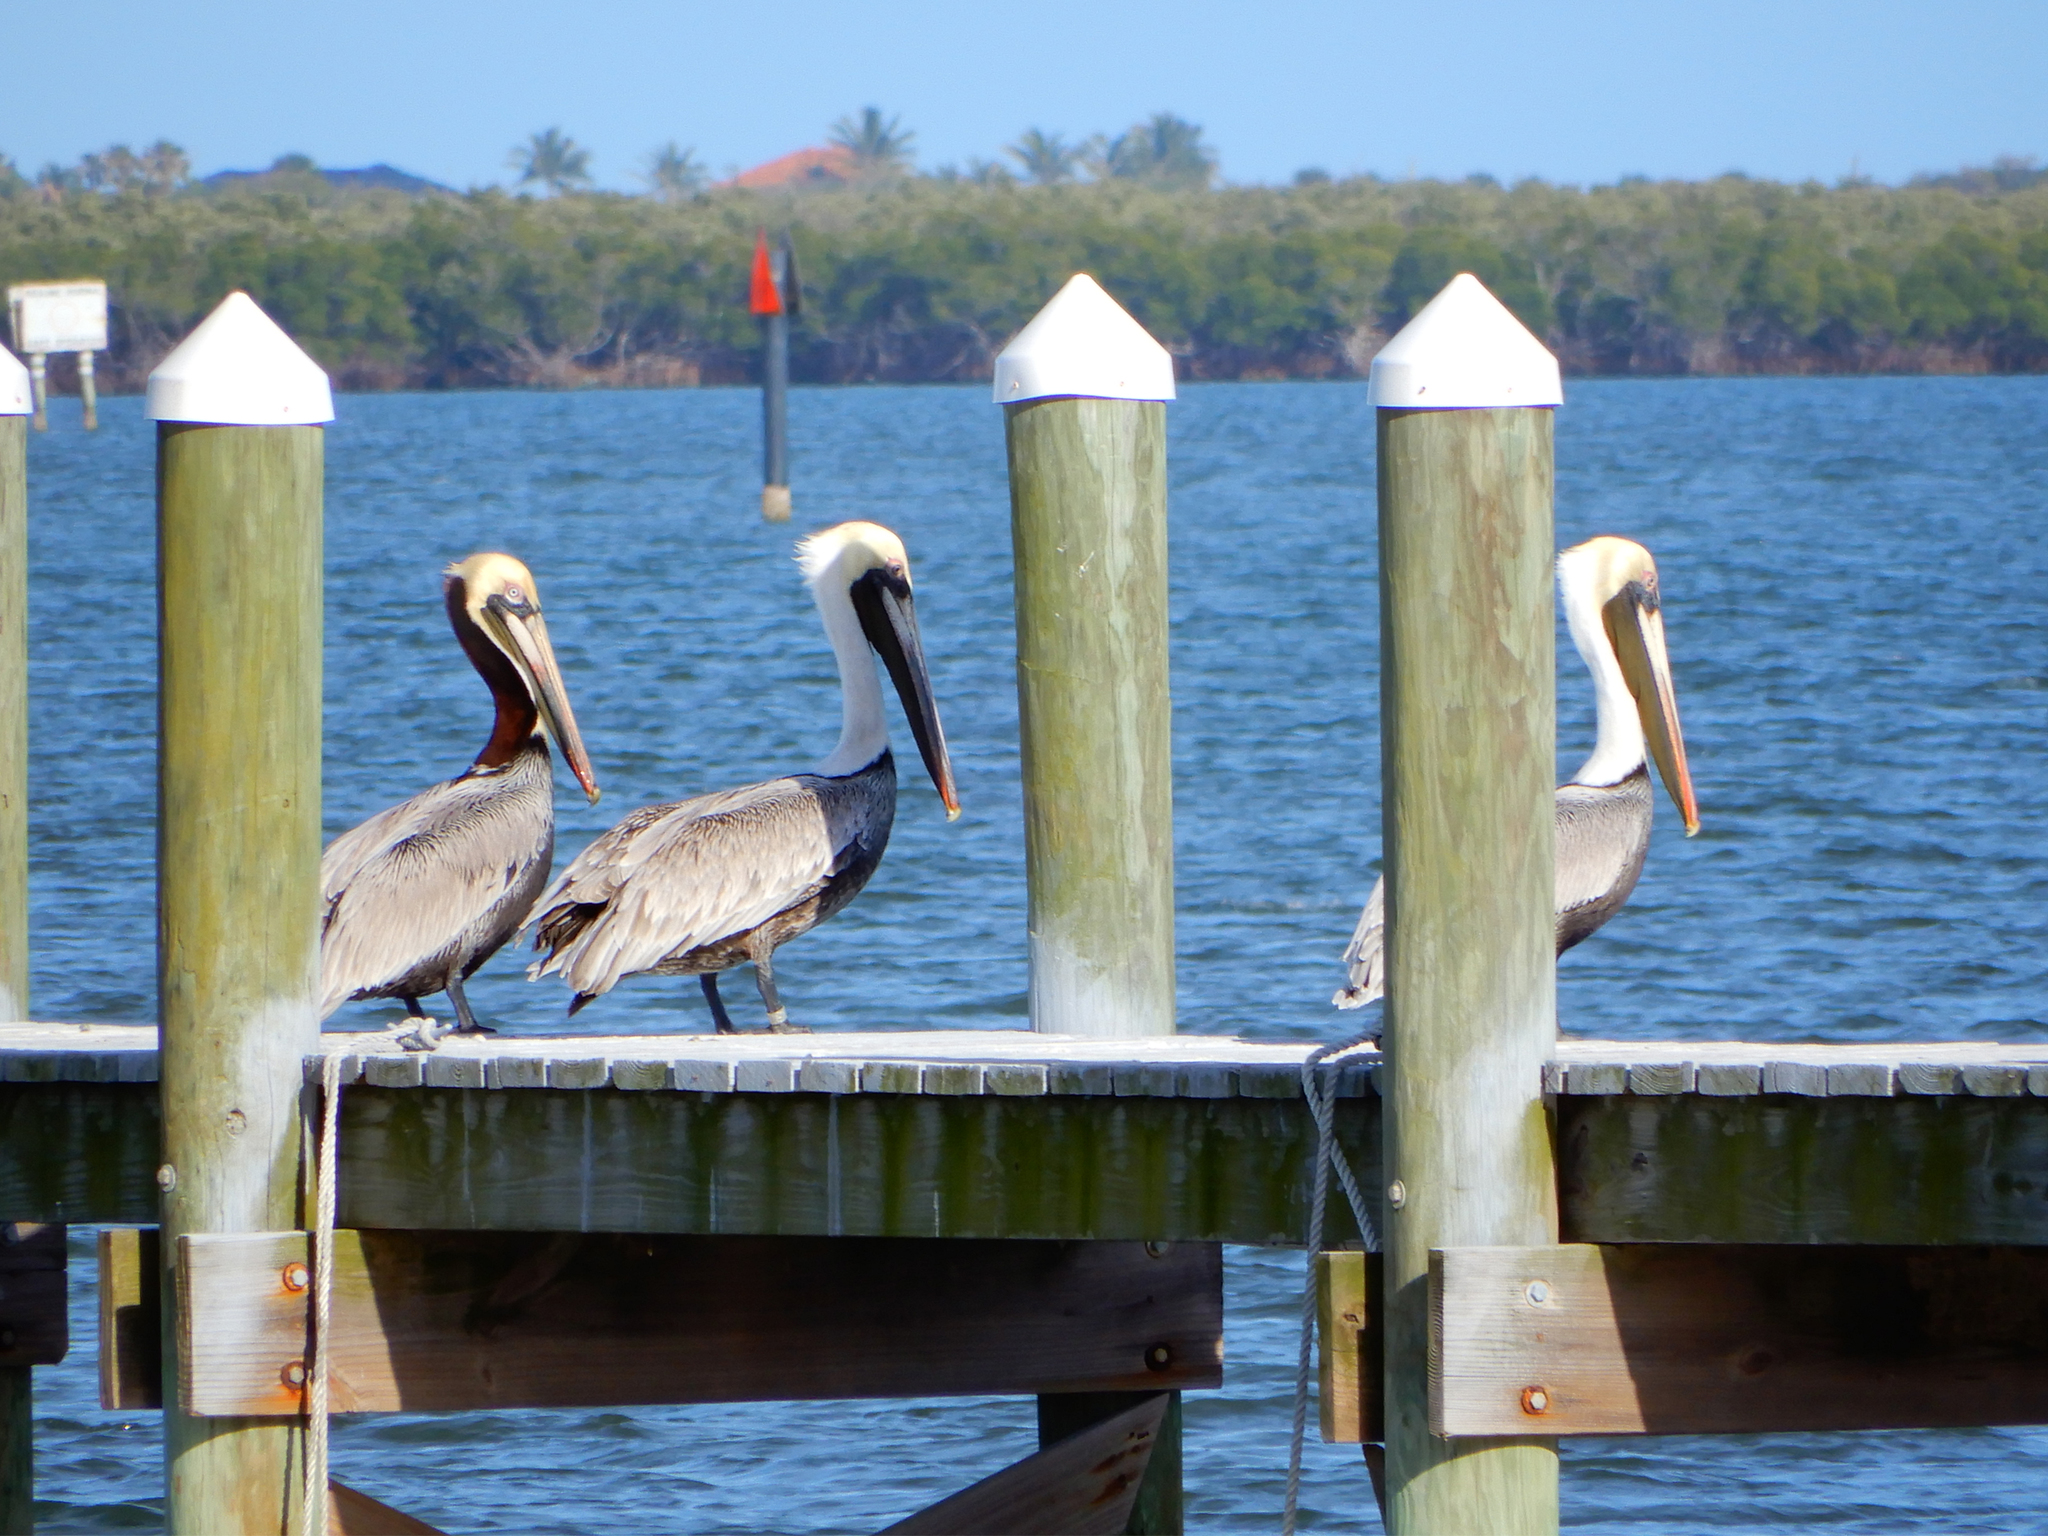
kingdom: Animalia
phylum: Chordata
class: Aves
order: Pelecaniformes
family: Pelecanidae
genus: Pelecanus
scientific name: Pelecanus occidentalis
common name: Brown pelican
